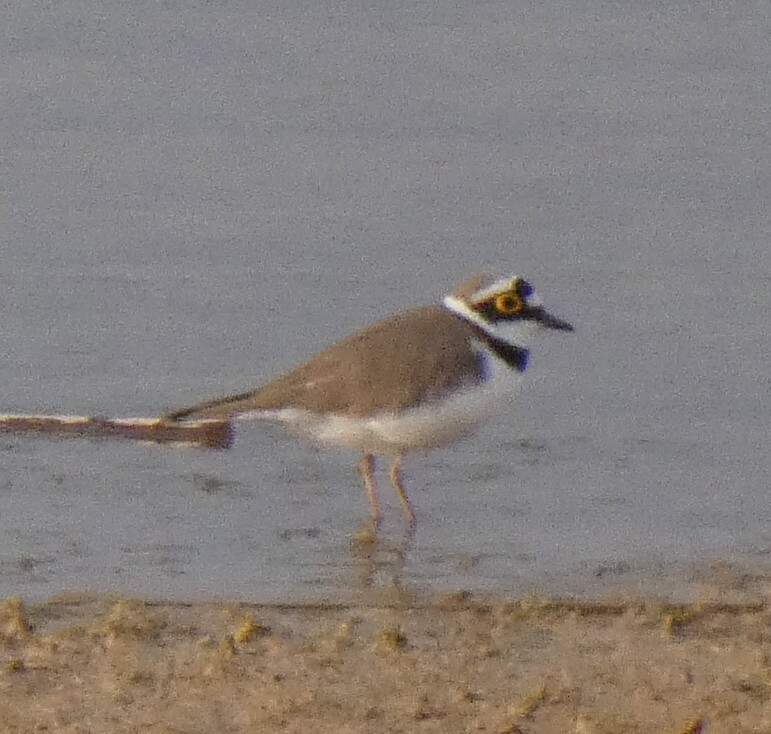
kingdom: Animalia
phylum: Chordata
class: Aves
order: Charadriiformes
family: Charadriidae
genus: Charadrius
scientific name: Charadrius dubius
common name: Little ringed plover
